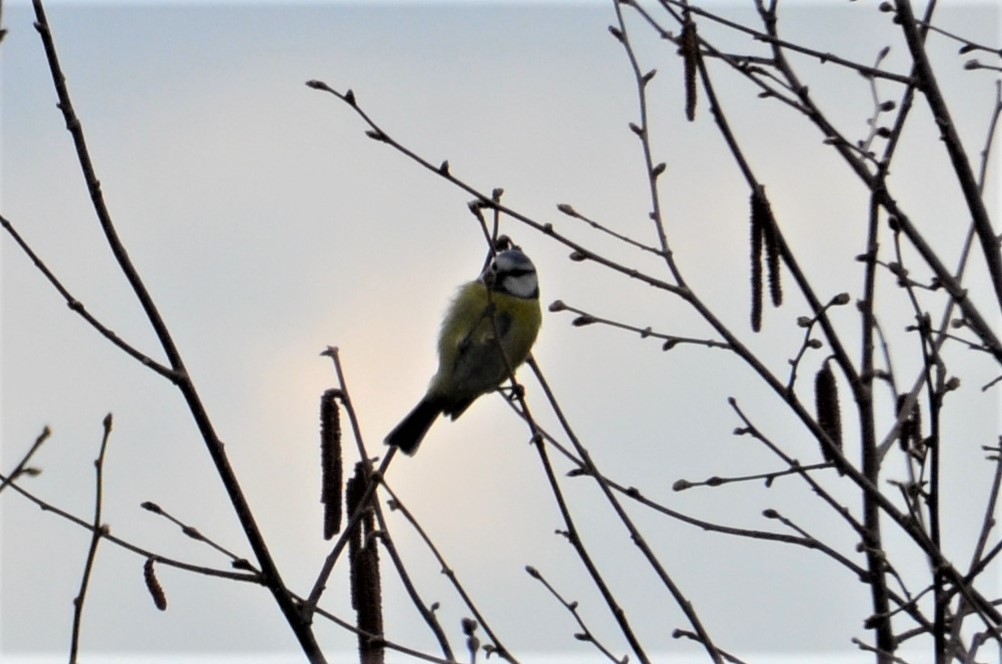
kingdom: Animalia
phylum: Chordata
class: Aves
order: Passeriformes
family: Paridae
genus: Cyanistes
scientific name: Cyanistes caeruleus
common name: Eurasian blue tit
